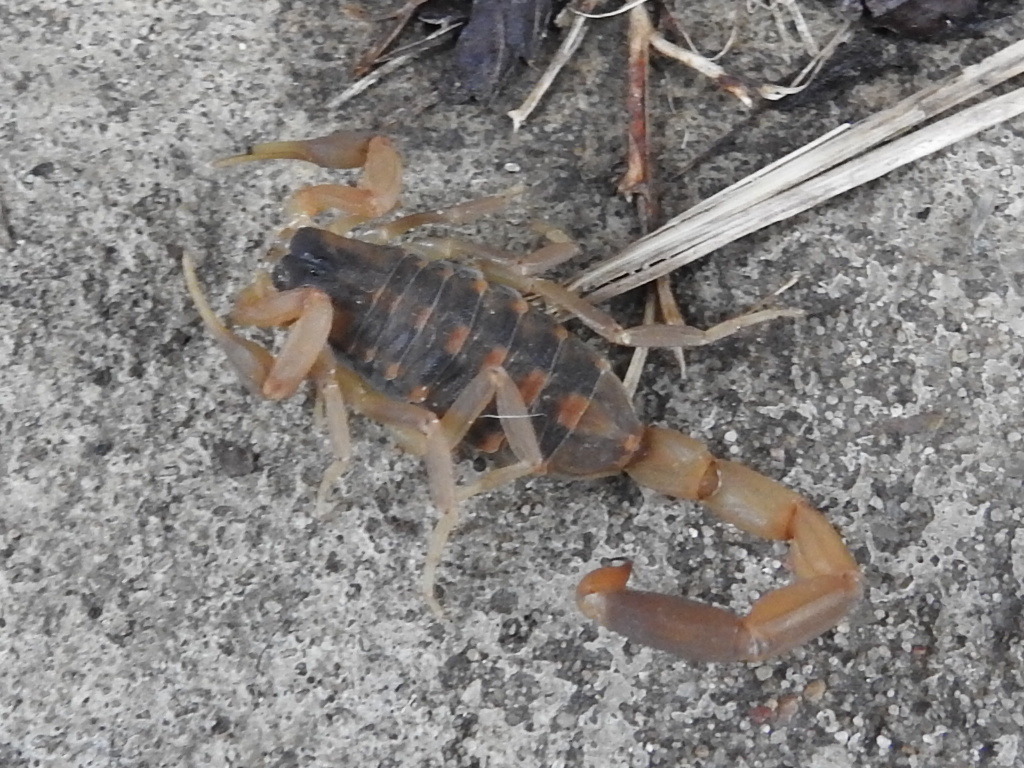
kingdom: Animalia
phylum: Arthropoda
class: Arachnida
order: Scorpiones
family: Buthidae
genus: Centruroides
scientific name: Centruroides vittatus
